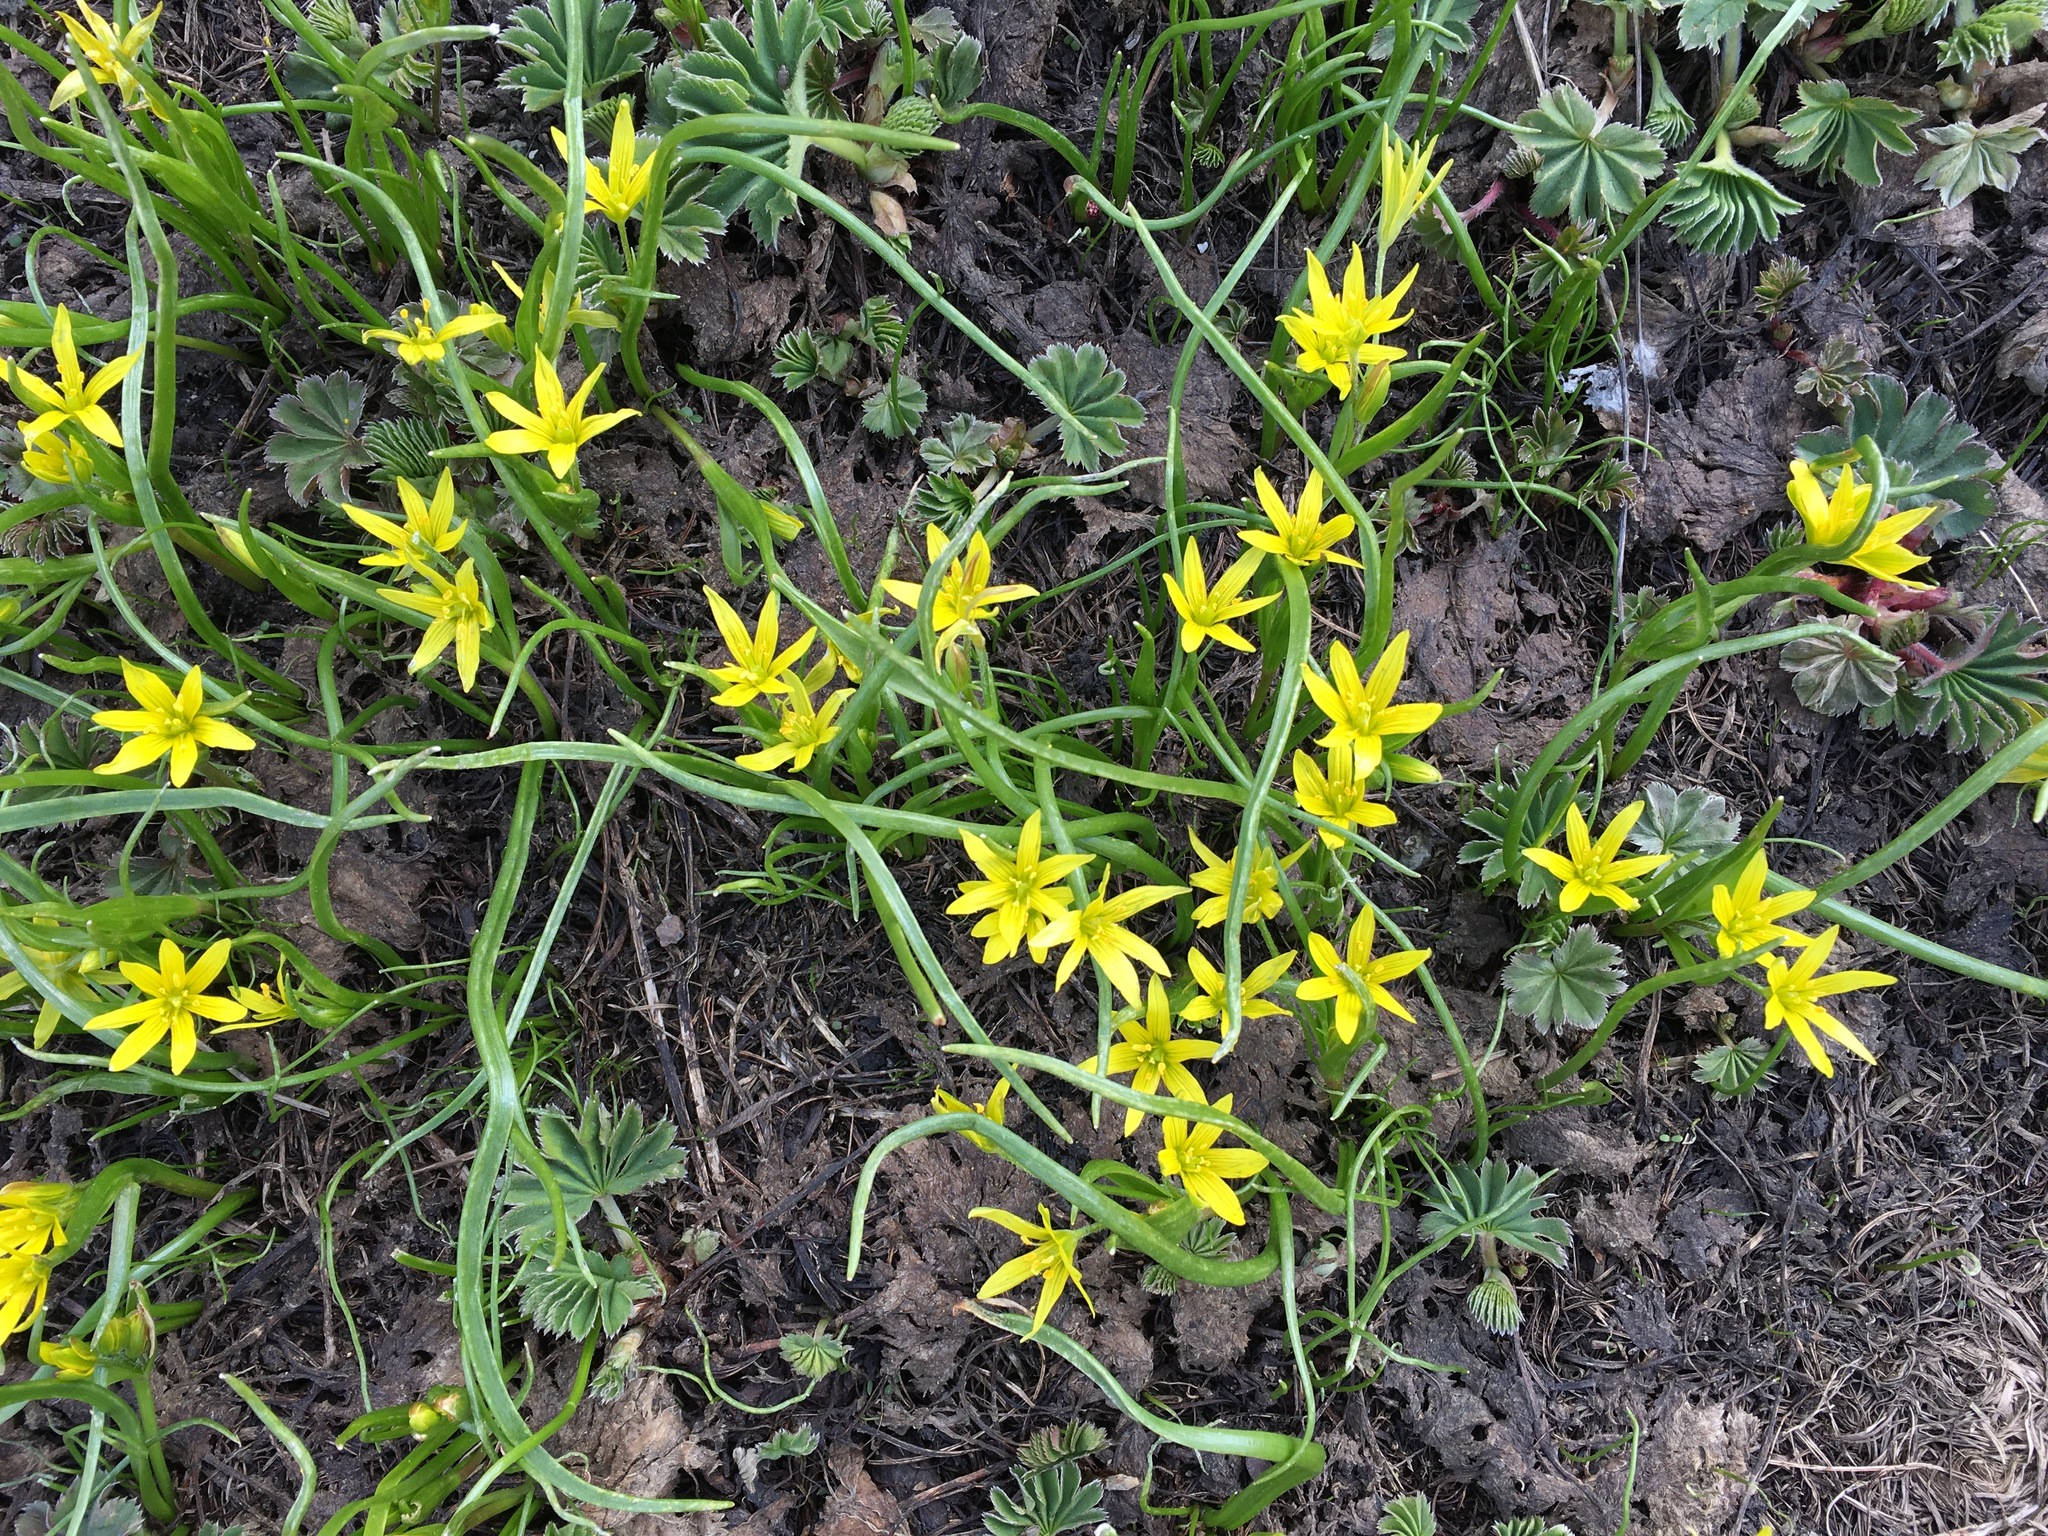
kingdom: Plantae
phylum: Tracheophyta
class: Liliopsida
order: Liliales
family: Liliaceae
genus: Gagea
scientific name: Gagea fragifera
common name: Lily
